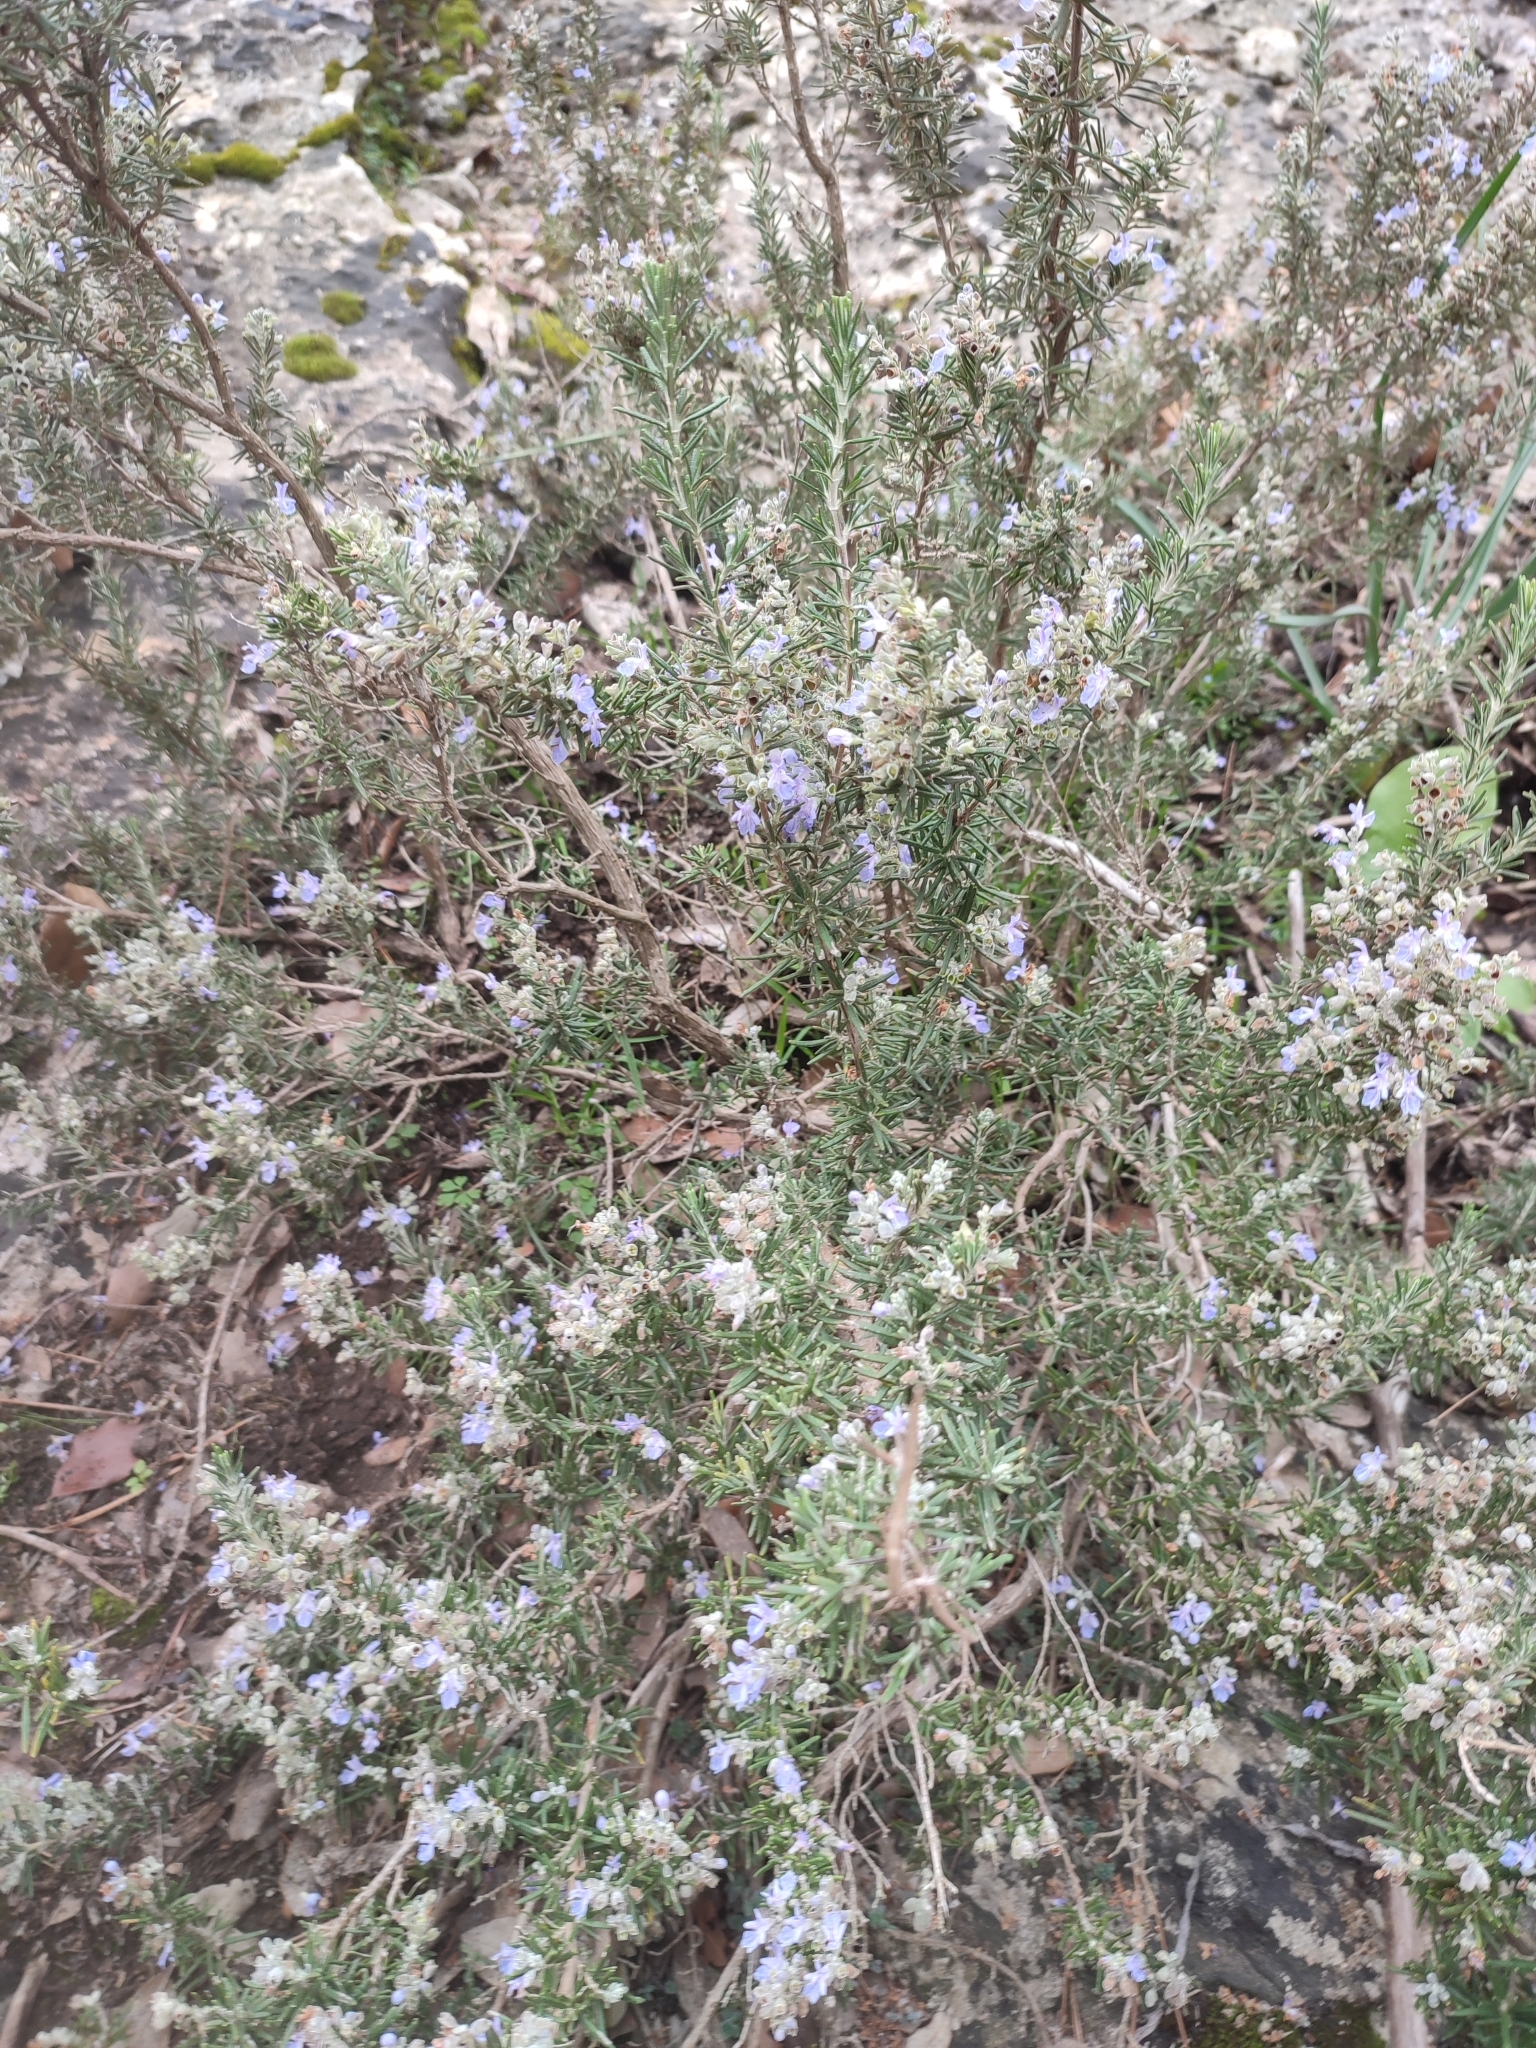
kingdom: Plantae
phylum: Tracheophyta
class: Magnoliopsida
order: Lamiales
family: Lamiaceae
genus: Salvia
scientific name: Salvia rosmarinus
